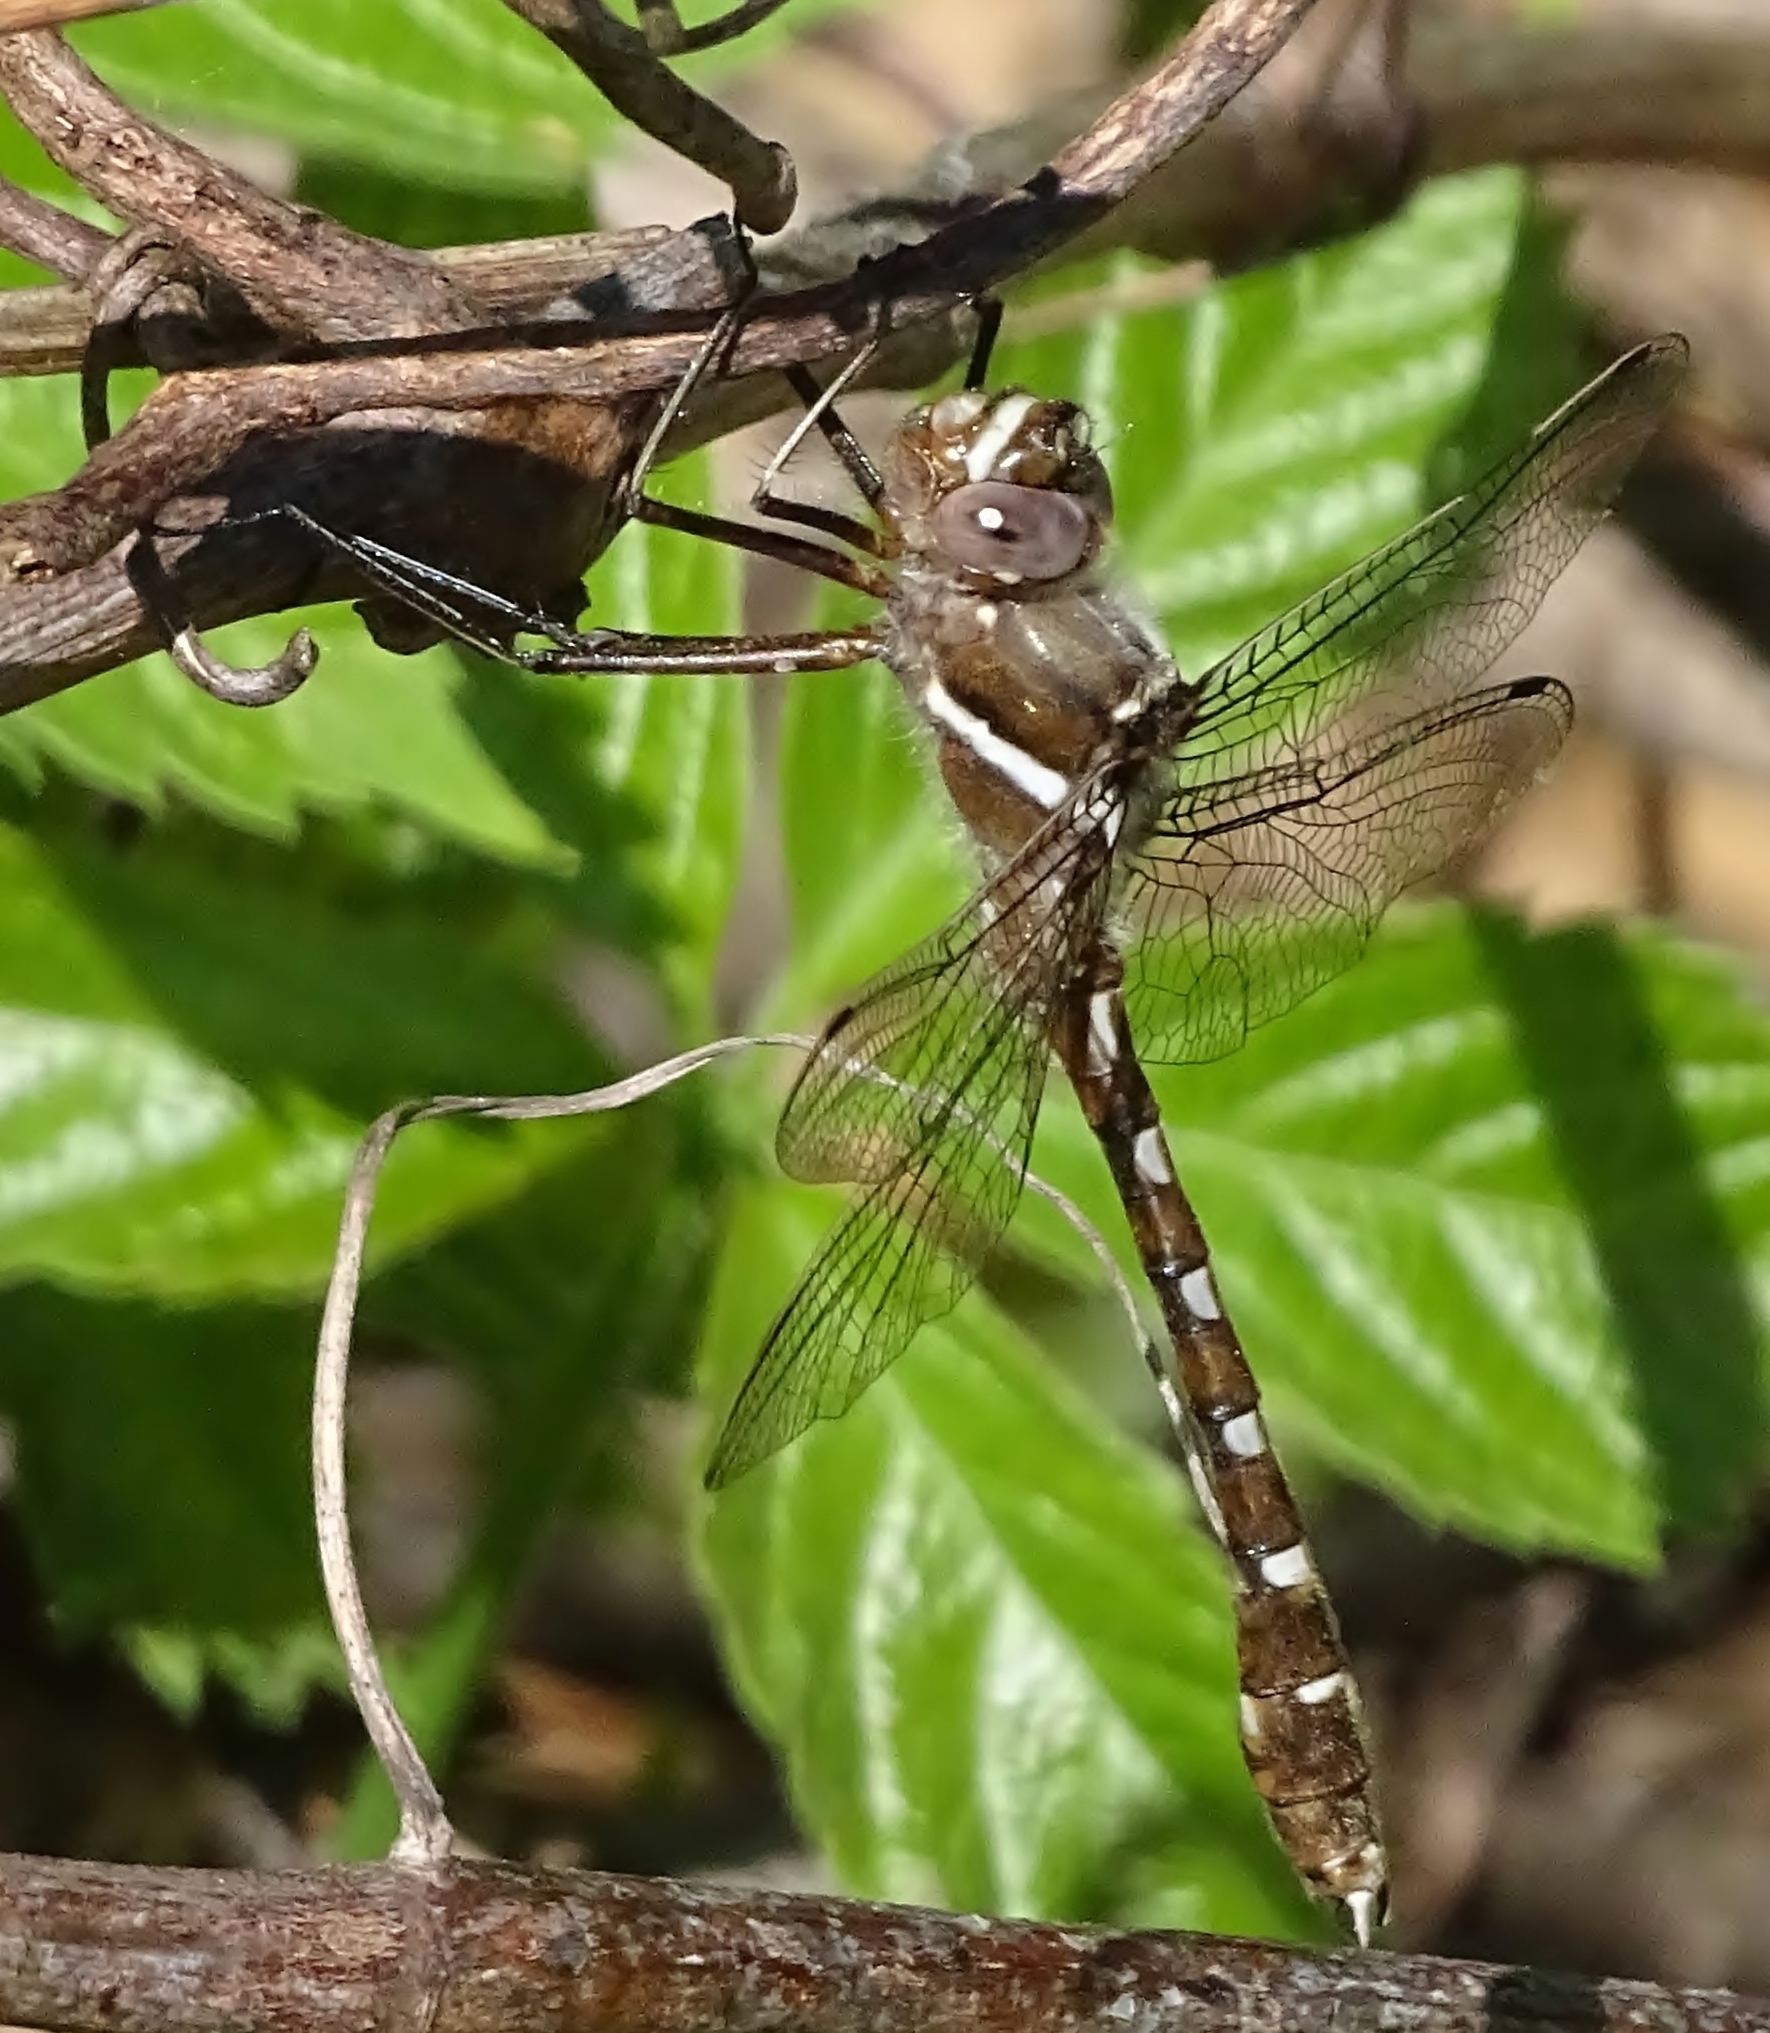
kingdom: Animalia
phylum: Arthropoda
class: Insecta
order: Odonata
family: Macromiidae
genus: Didymops
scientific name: Didymops transversa
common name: Stream cruiser
